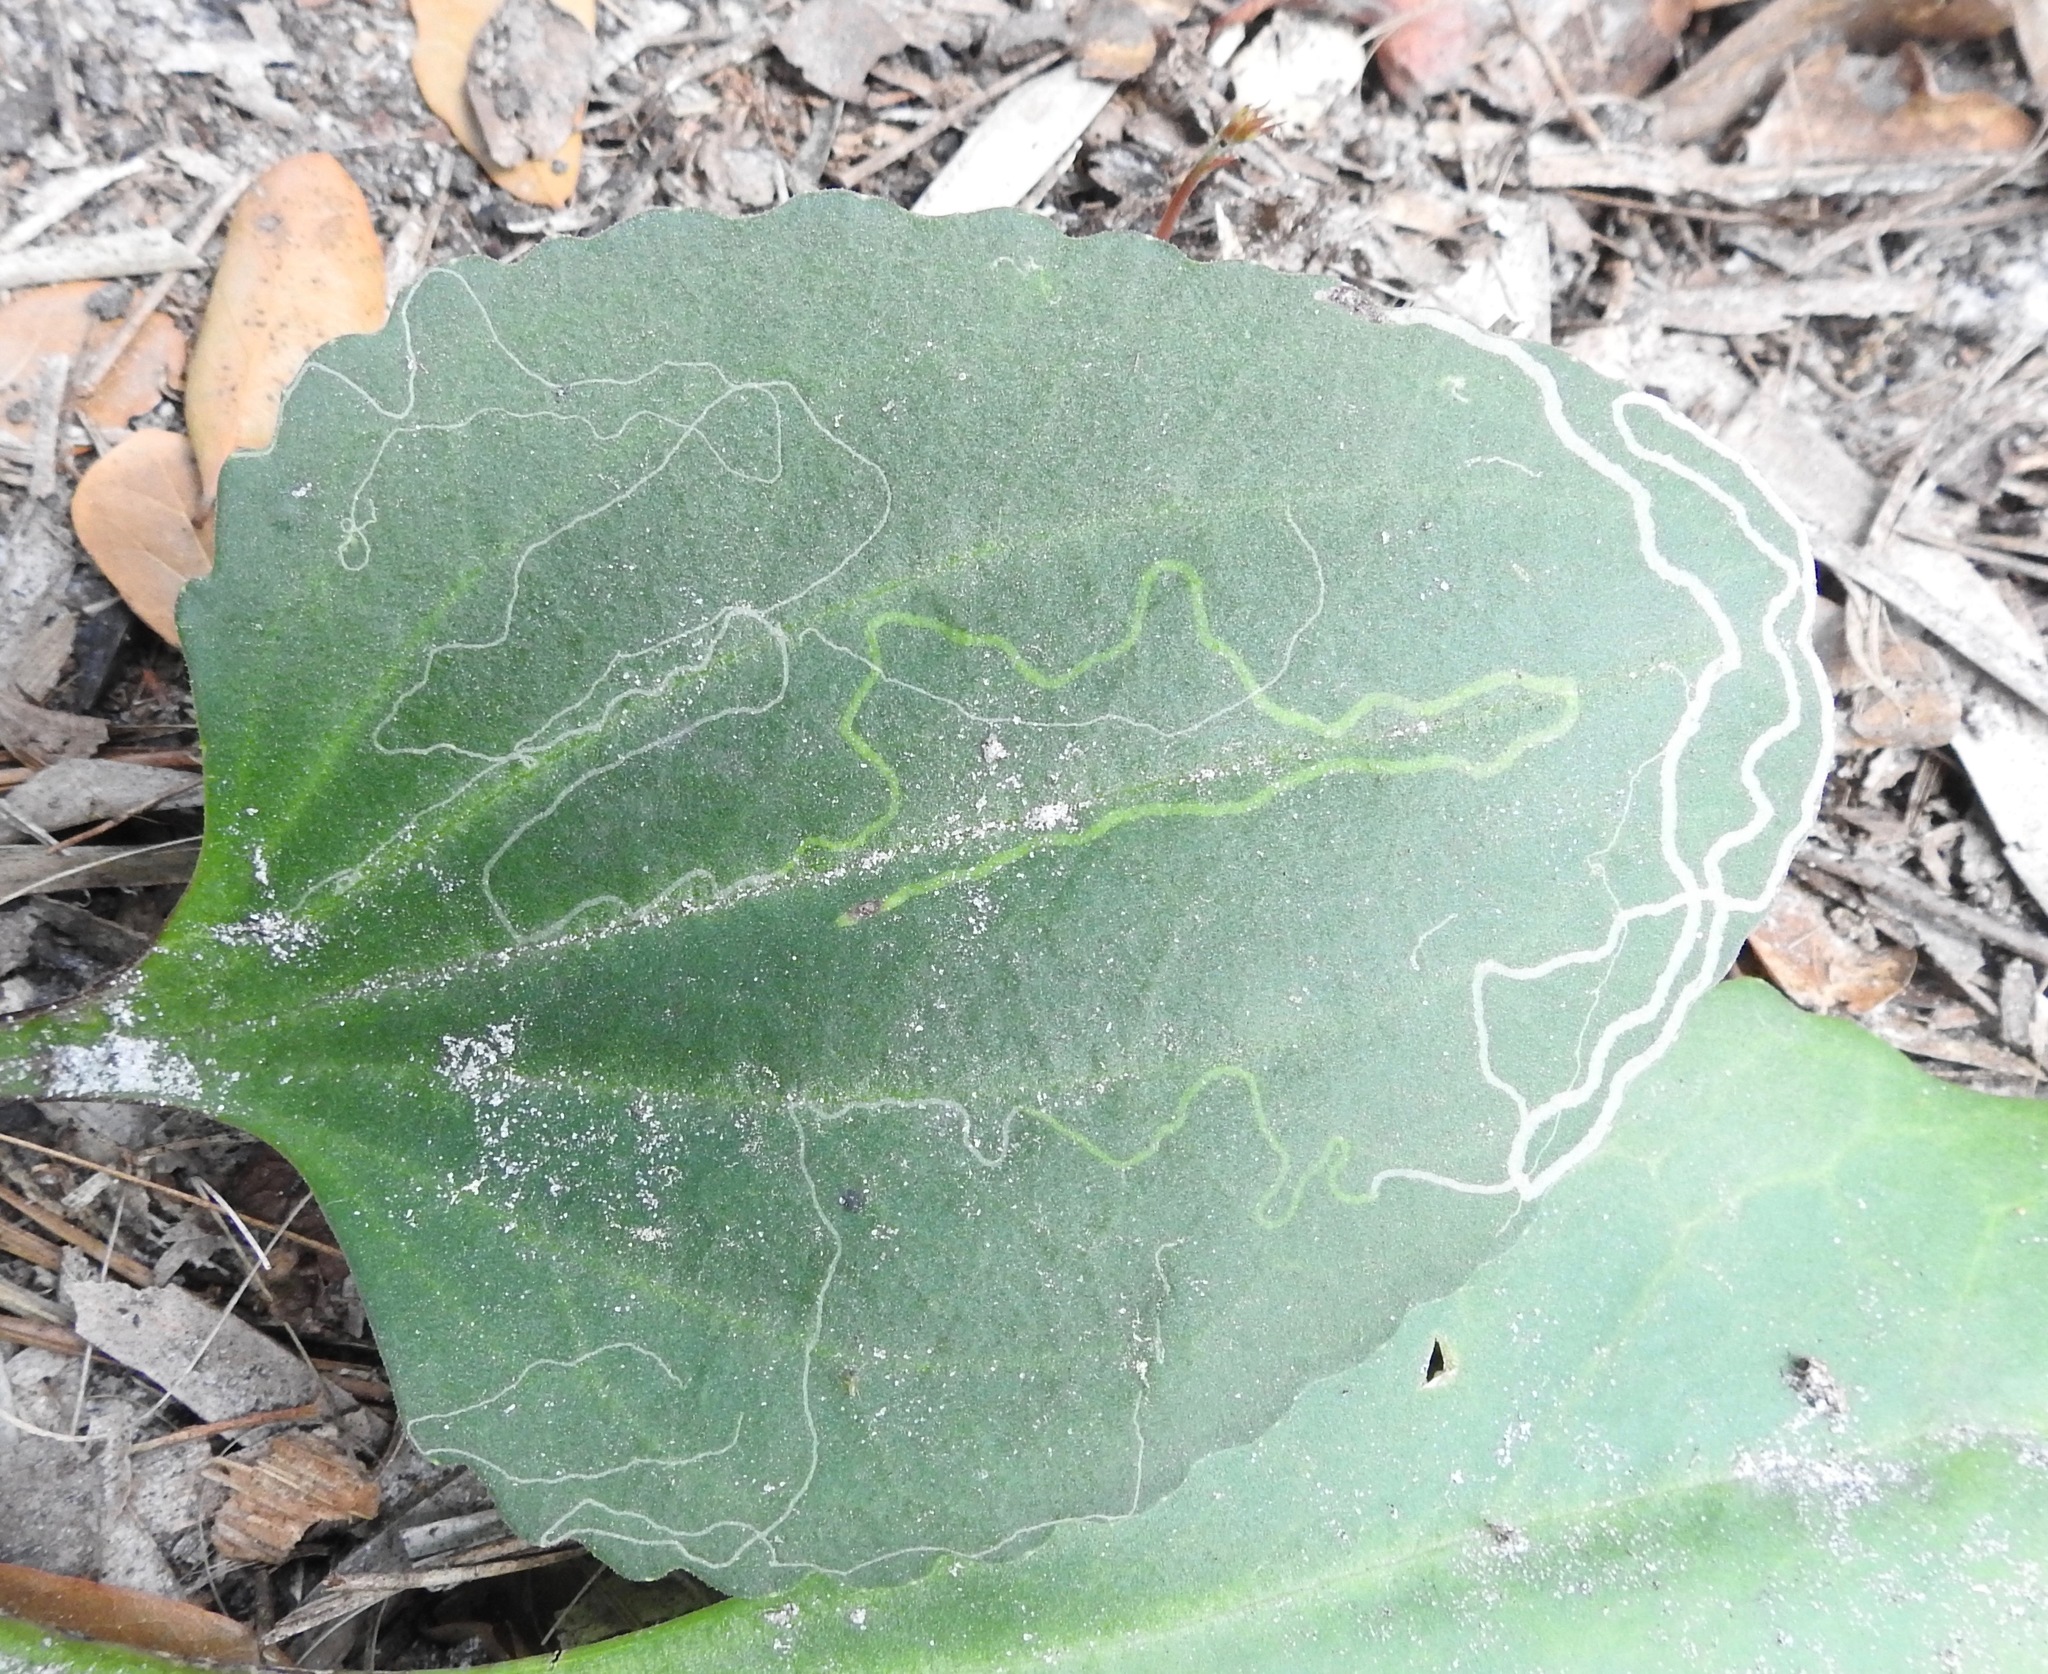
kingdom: Animalia
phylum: Arthropoda
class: Insecta
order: Lepidoptera
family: Gracillariidae
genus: Phyllocnistis
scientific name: Phyllocnistis insignis
